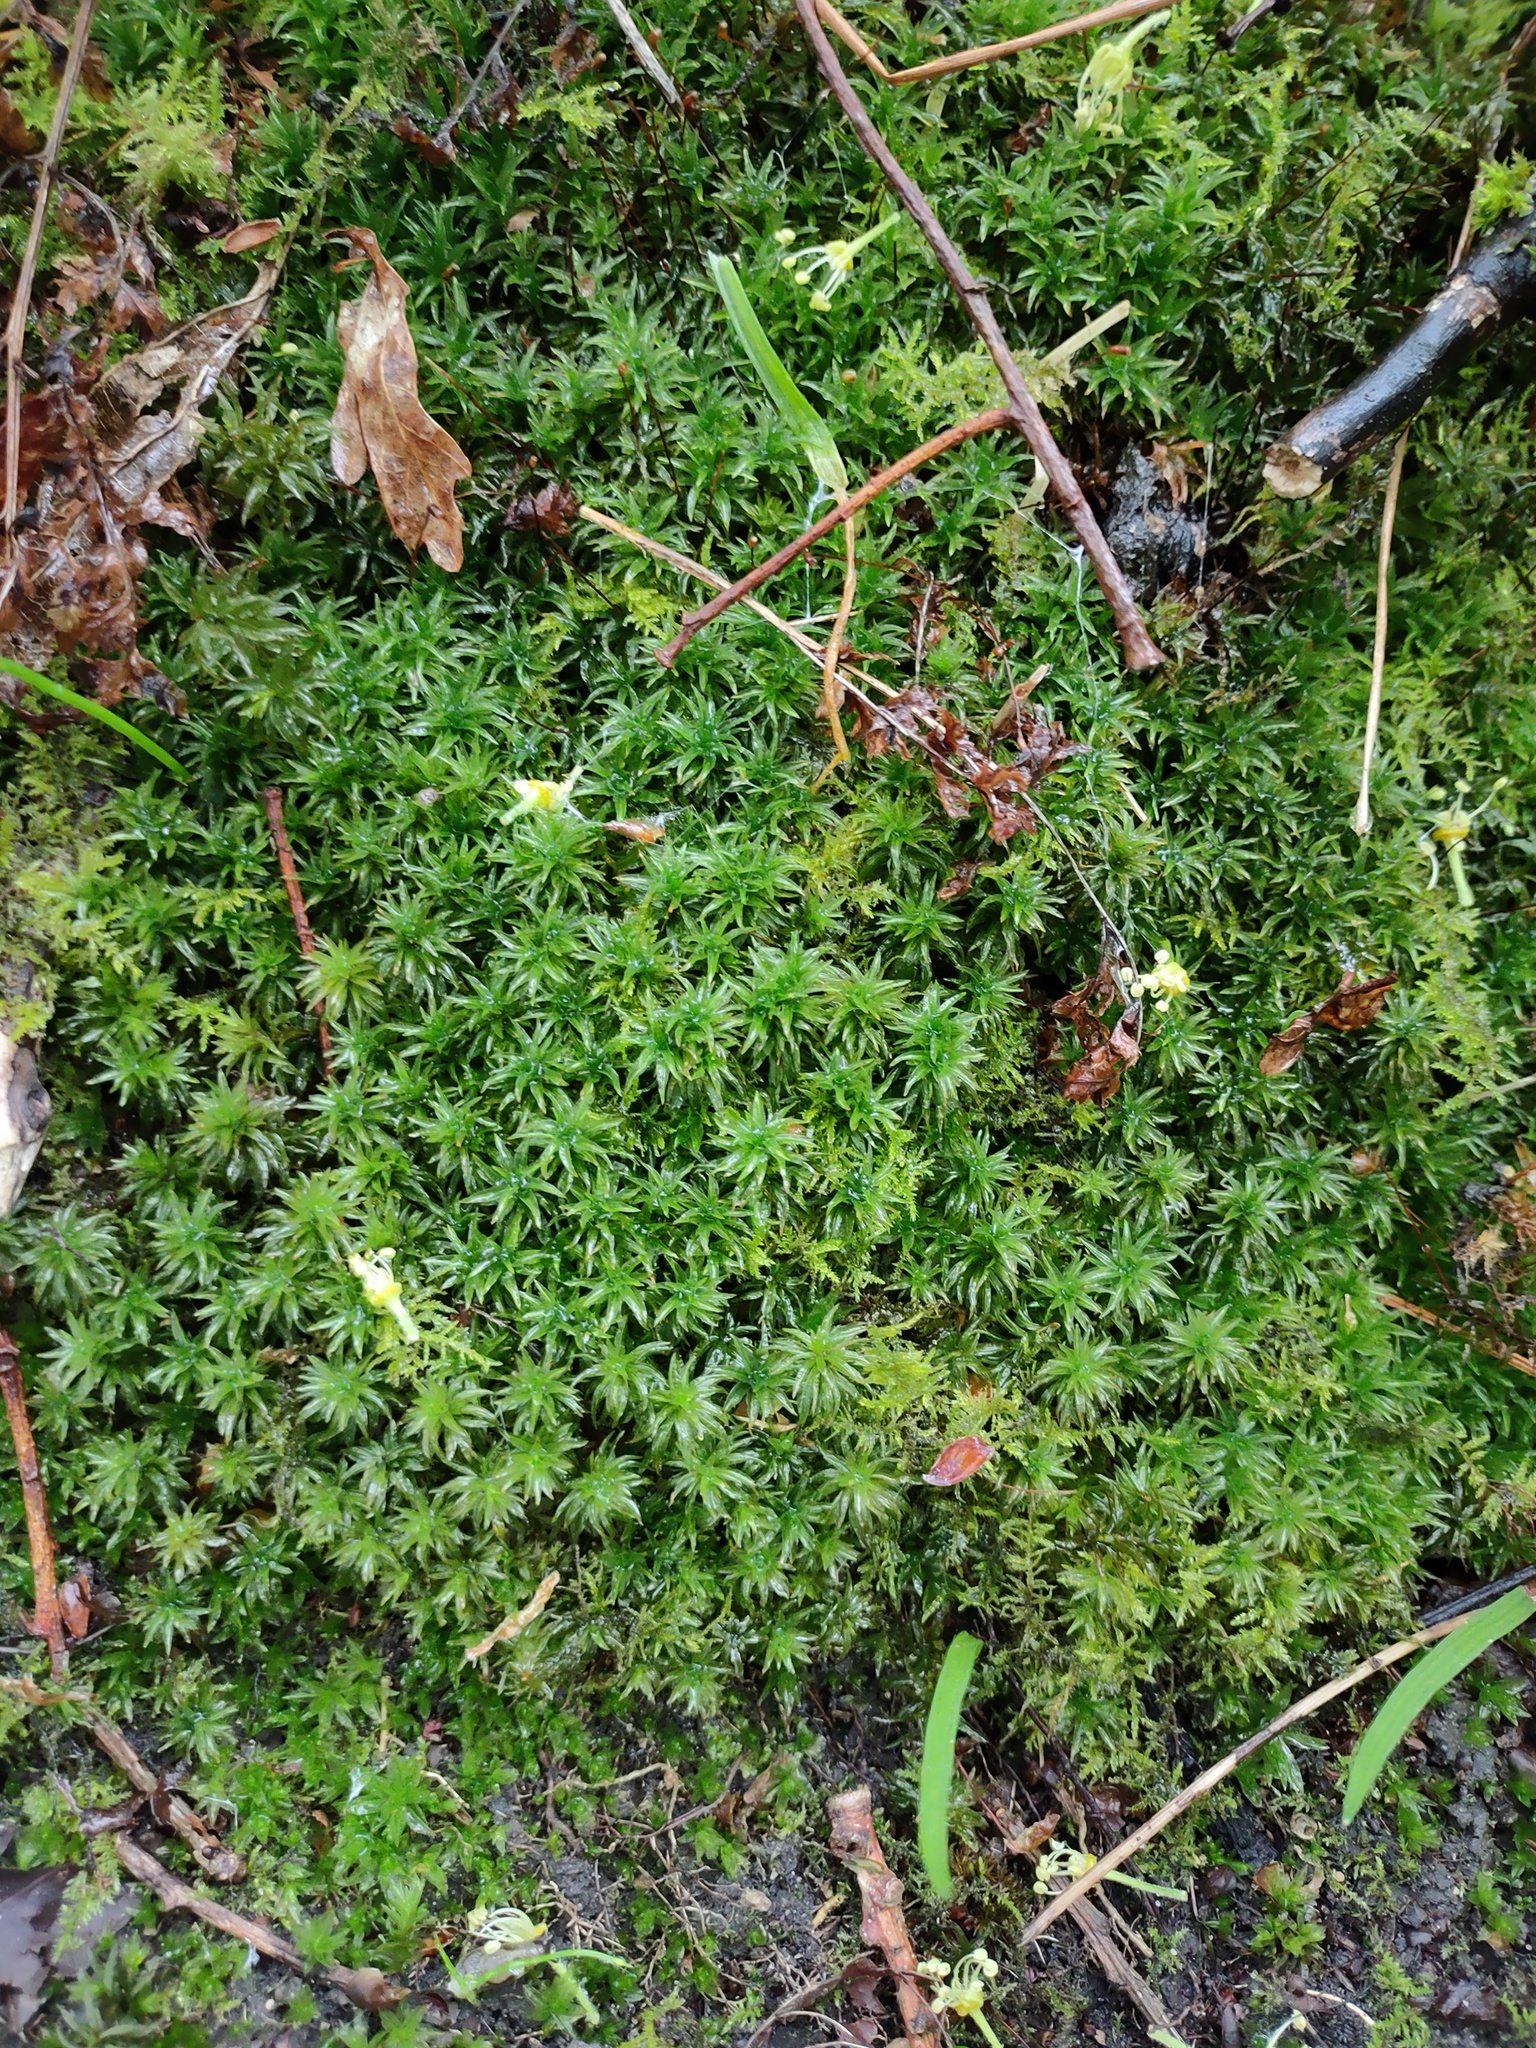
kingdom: Plantae
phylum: Bryophyta
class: Polytrichopsida
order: Polytrichales
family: Polytrichaceae
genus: Atrichum
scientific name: Atrichum undulatum
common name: Common smoothcap
